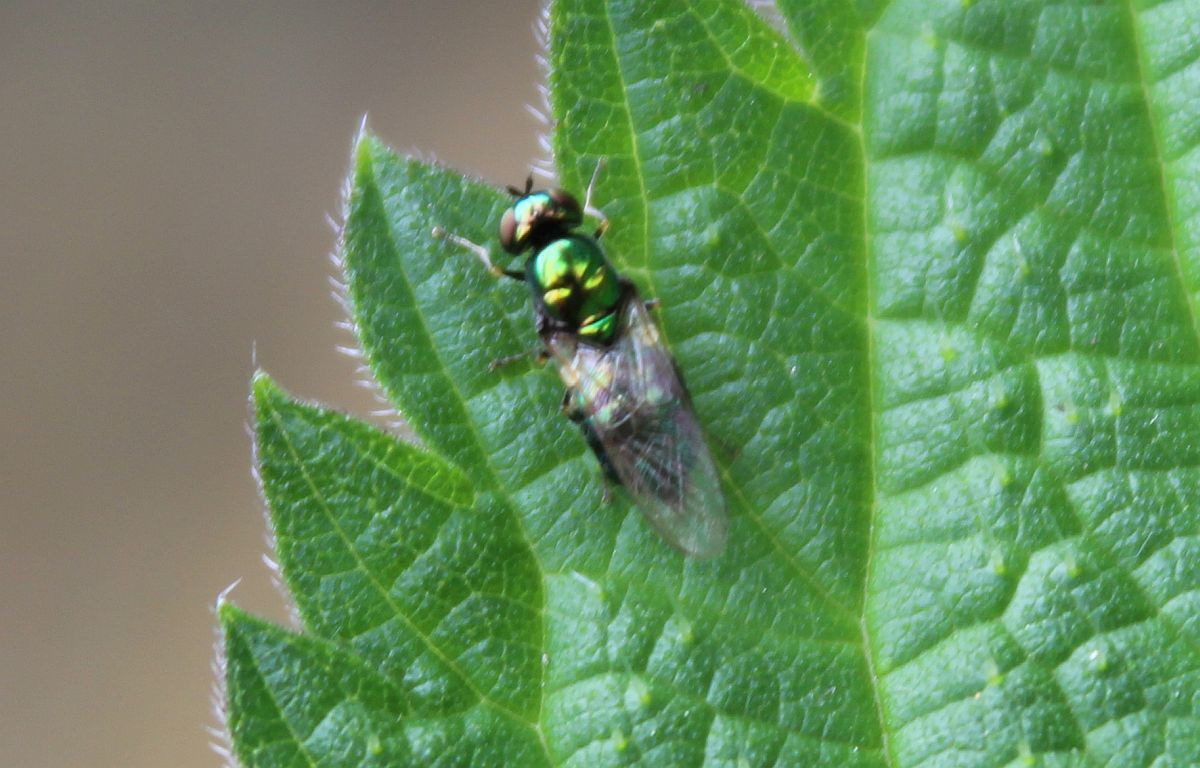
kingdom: Animalia
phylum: Arthropoda
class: Insecta
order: Diptera
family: Stratiomyidae
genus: Microchrysa
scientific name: Microchrysa polita
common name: Black-horned gem
